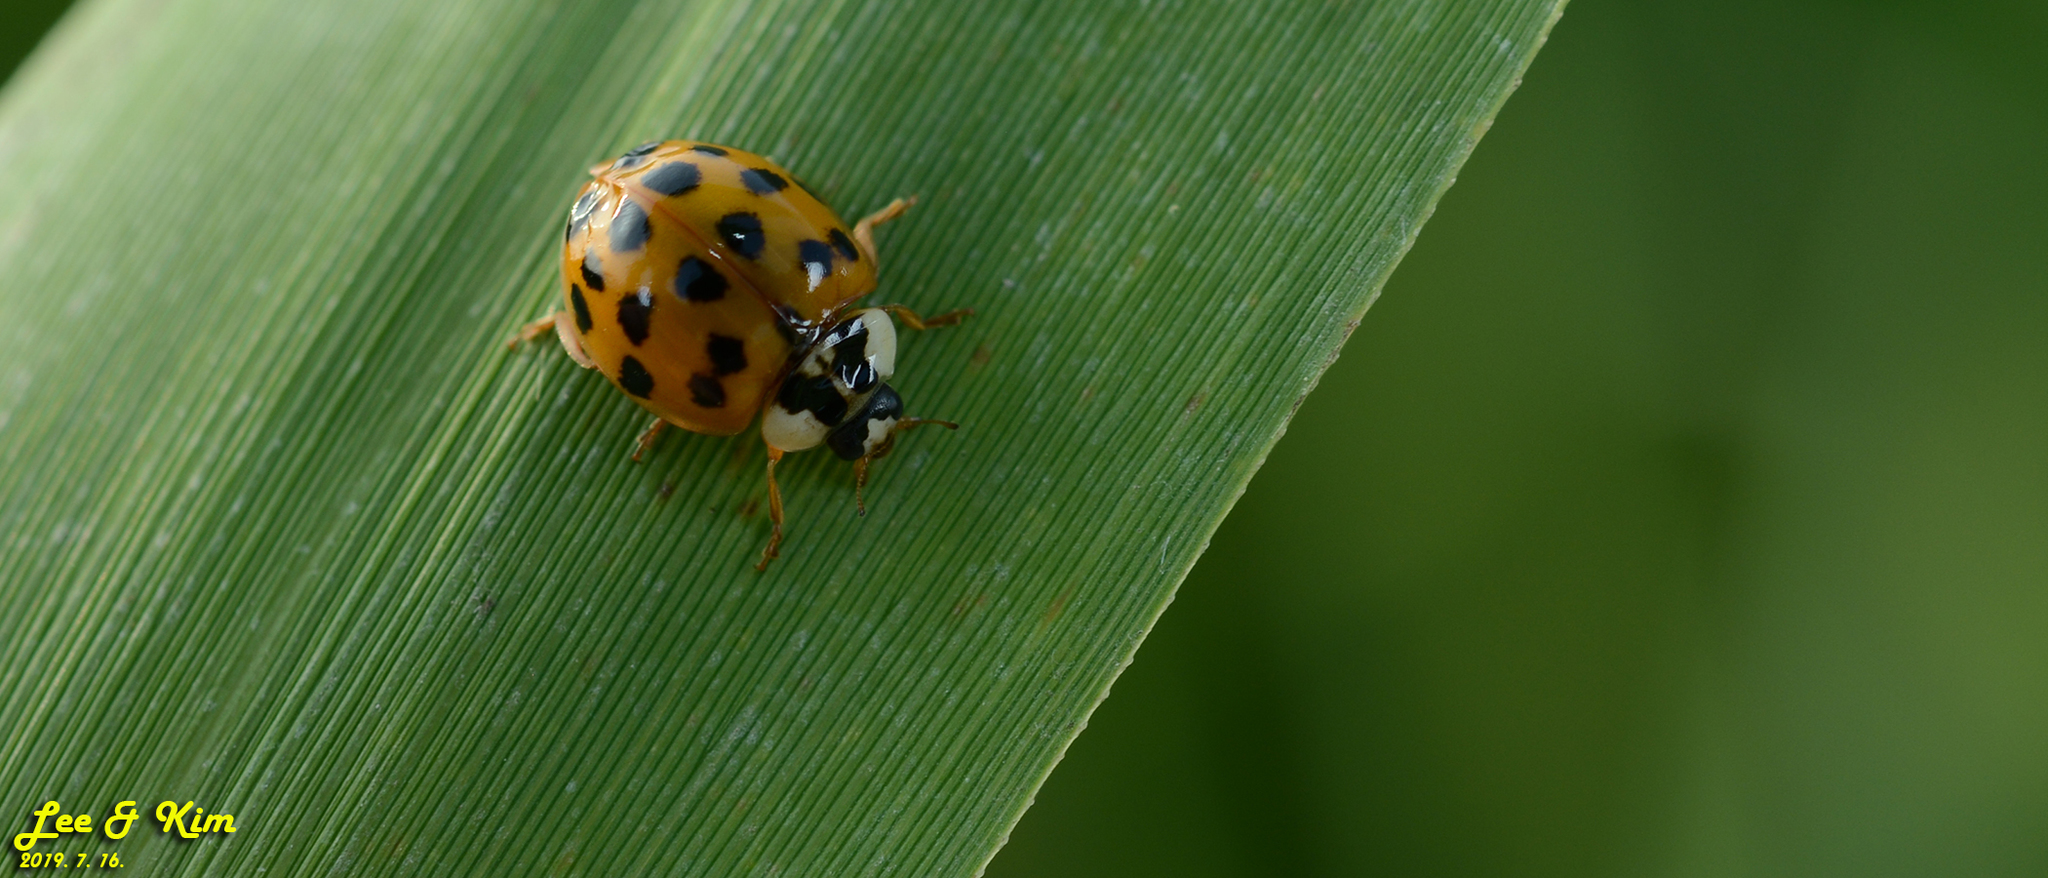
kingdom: Animalia
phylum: Arthropoda
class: Insecta
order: Coleoptera
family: Coccinellidae
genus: Harmonia
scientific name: Harmonia axyridis
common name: Harlequin ladybird
